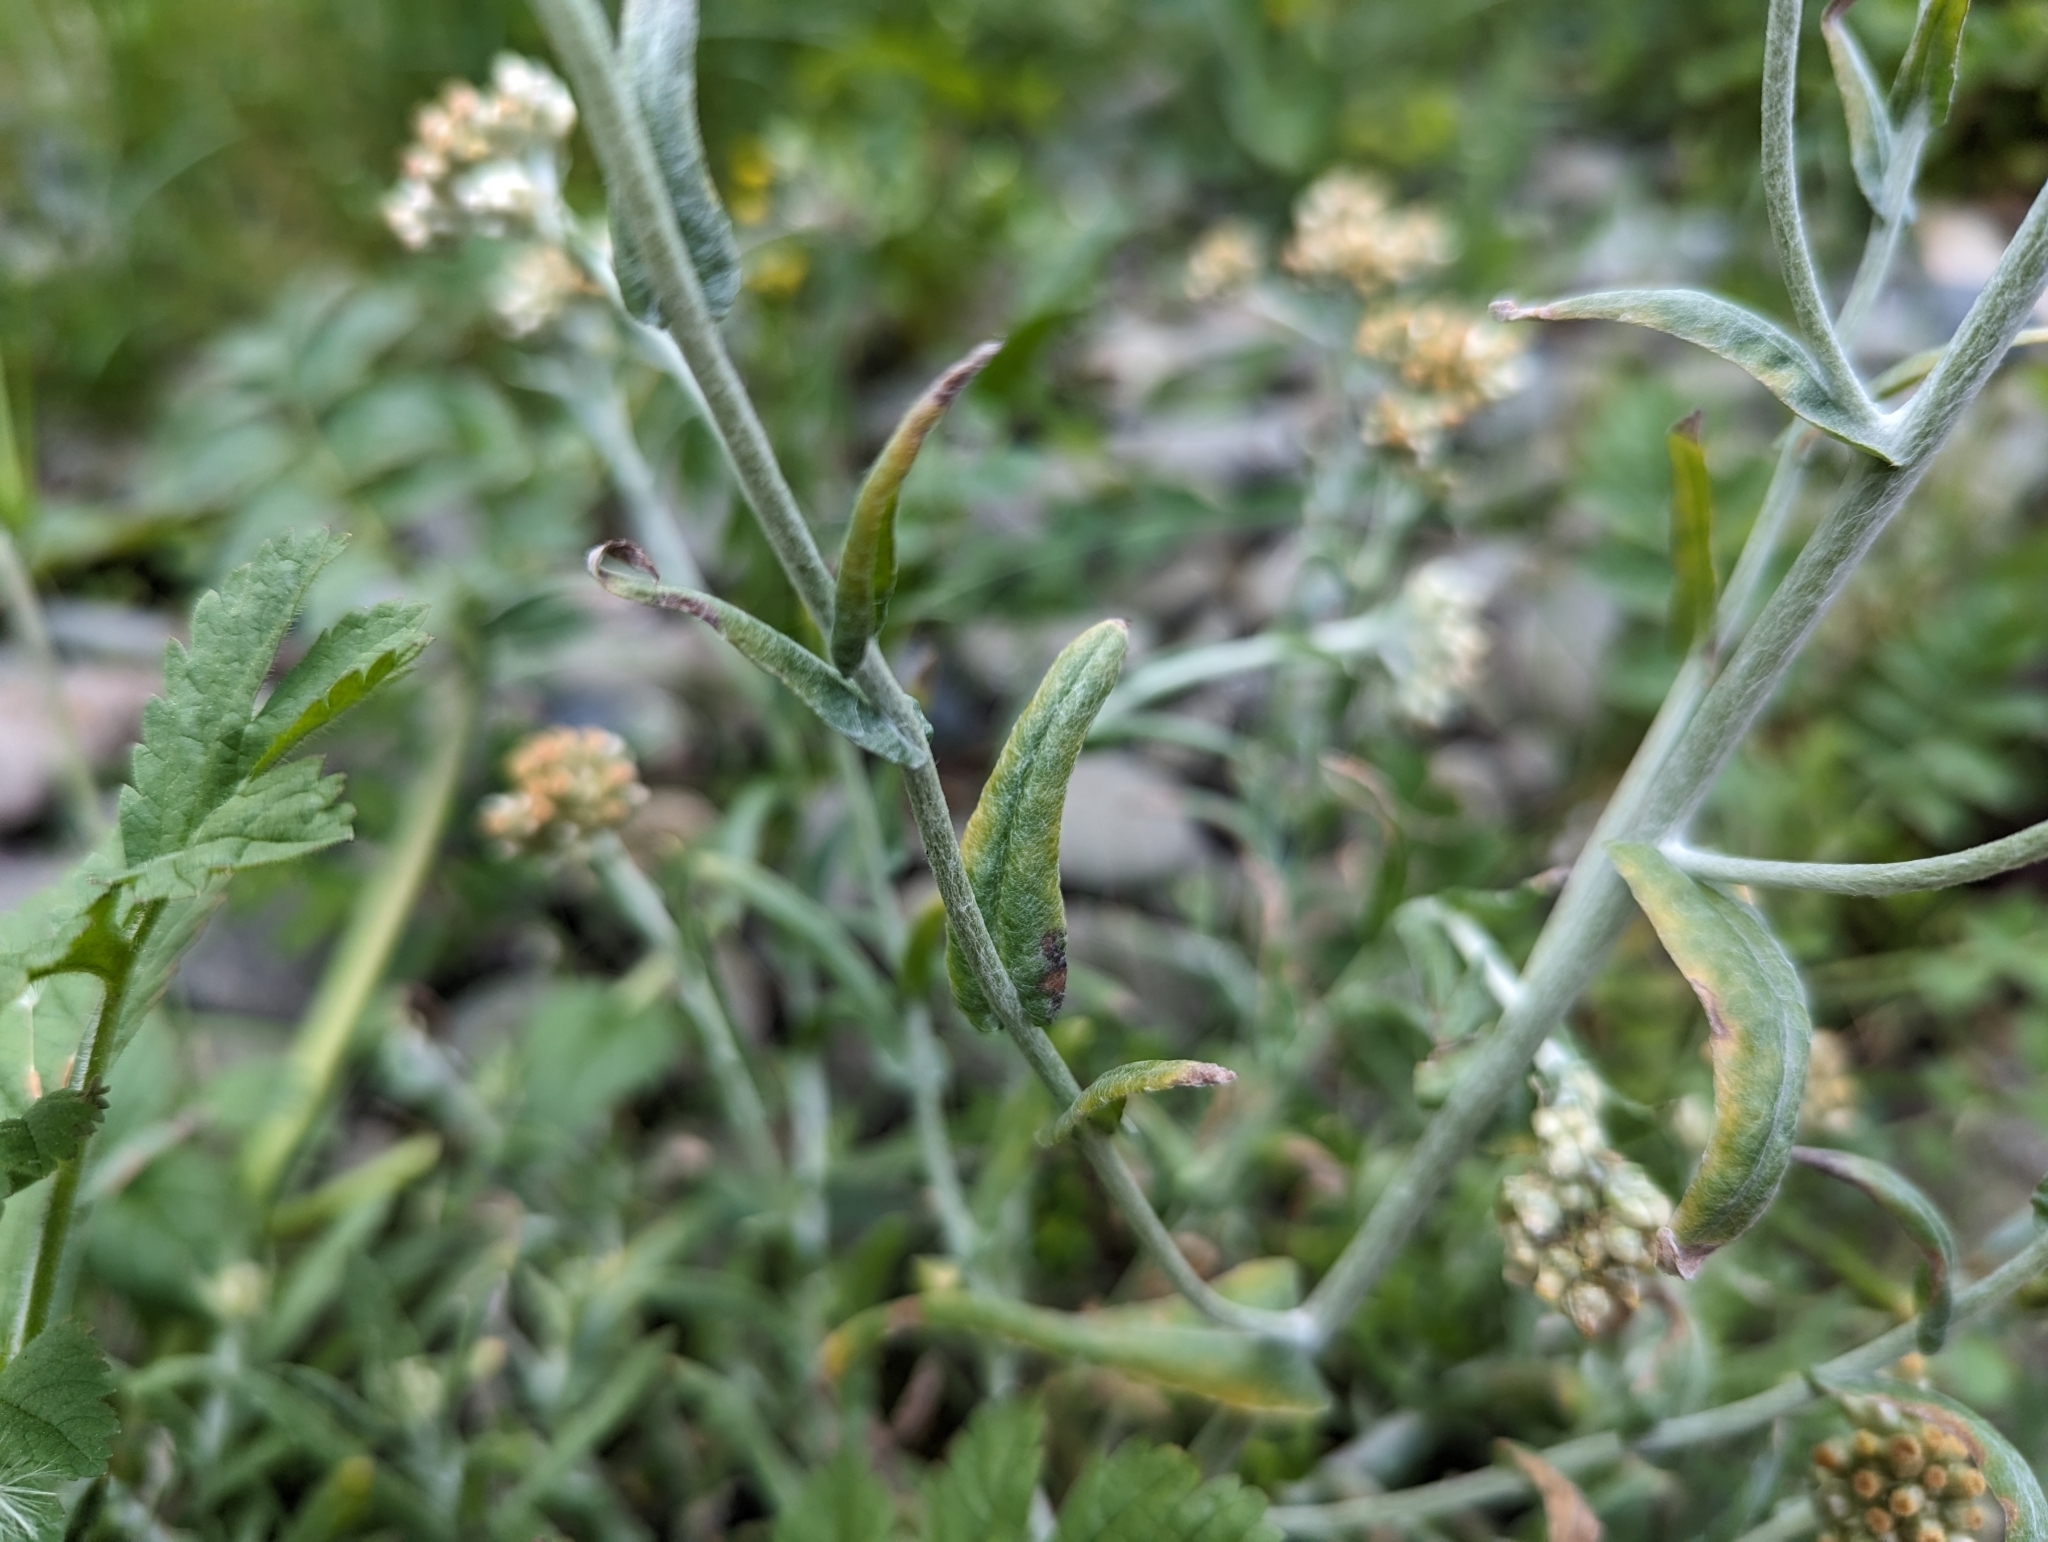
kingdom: Plantae
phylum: Tracheophyta
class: Magnoliopsida
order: Asterales
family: Asteraceae
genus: Helichrysum
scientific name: Helichrysum luteoalbum
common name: Daisy
